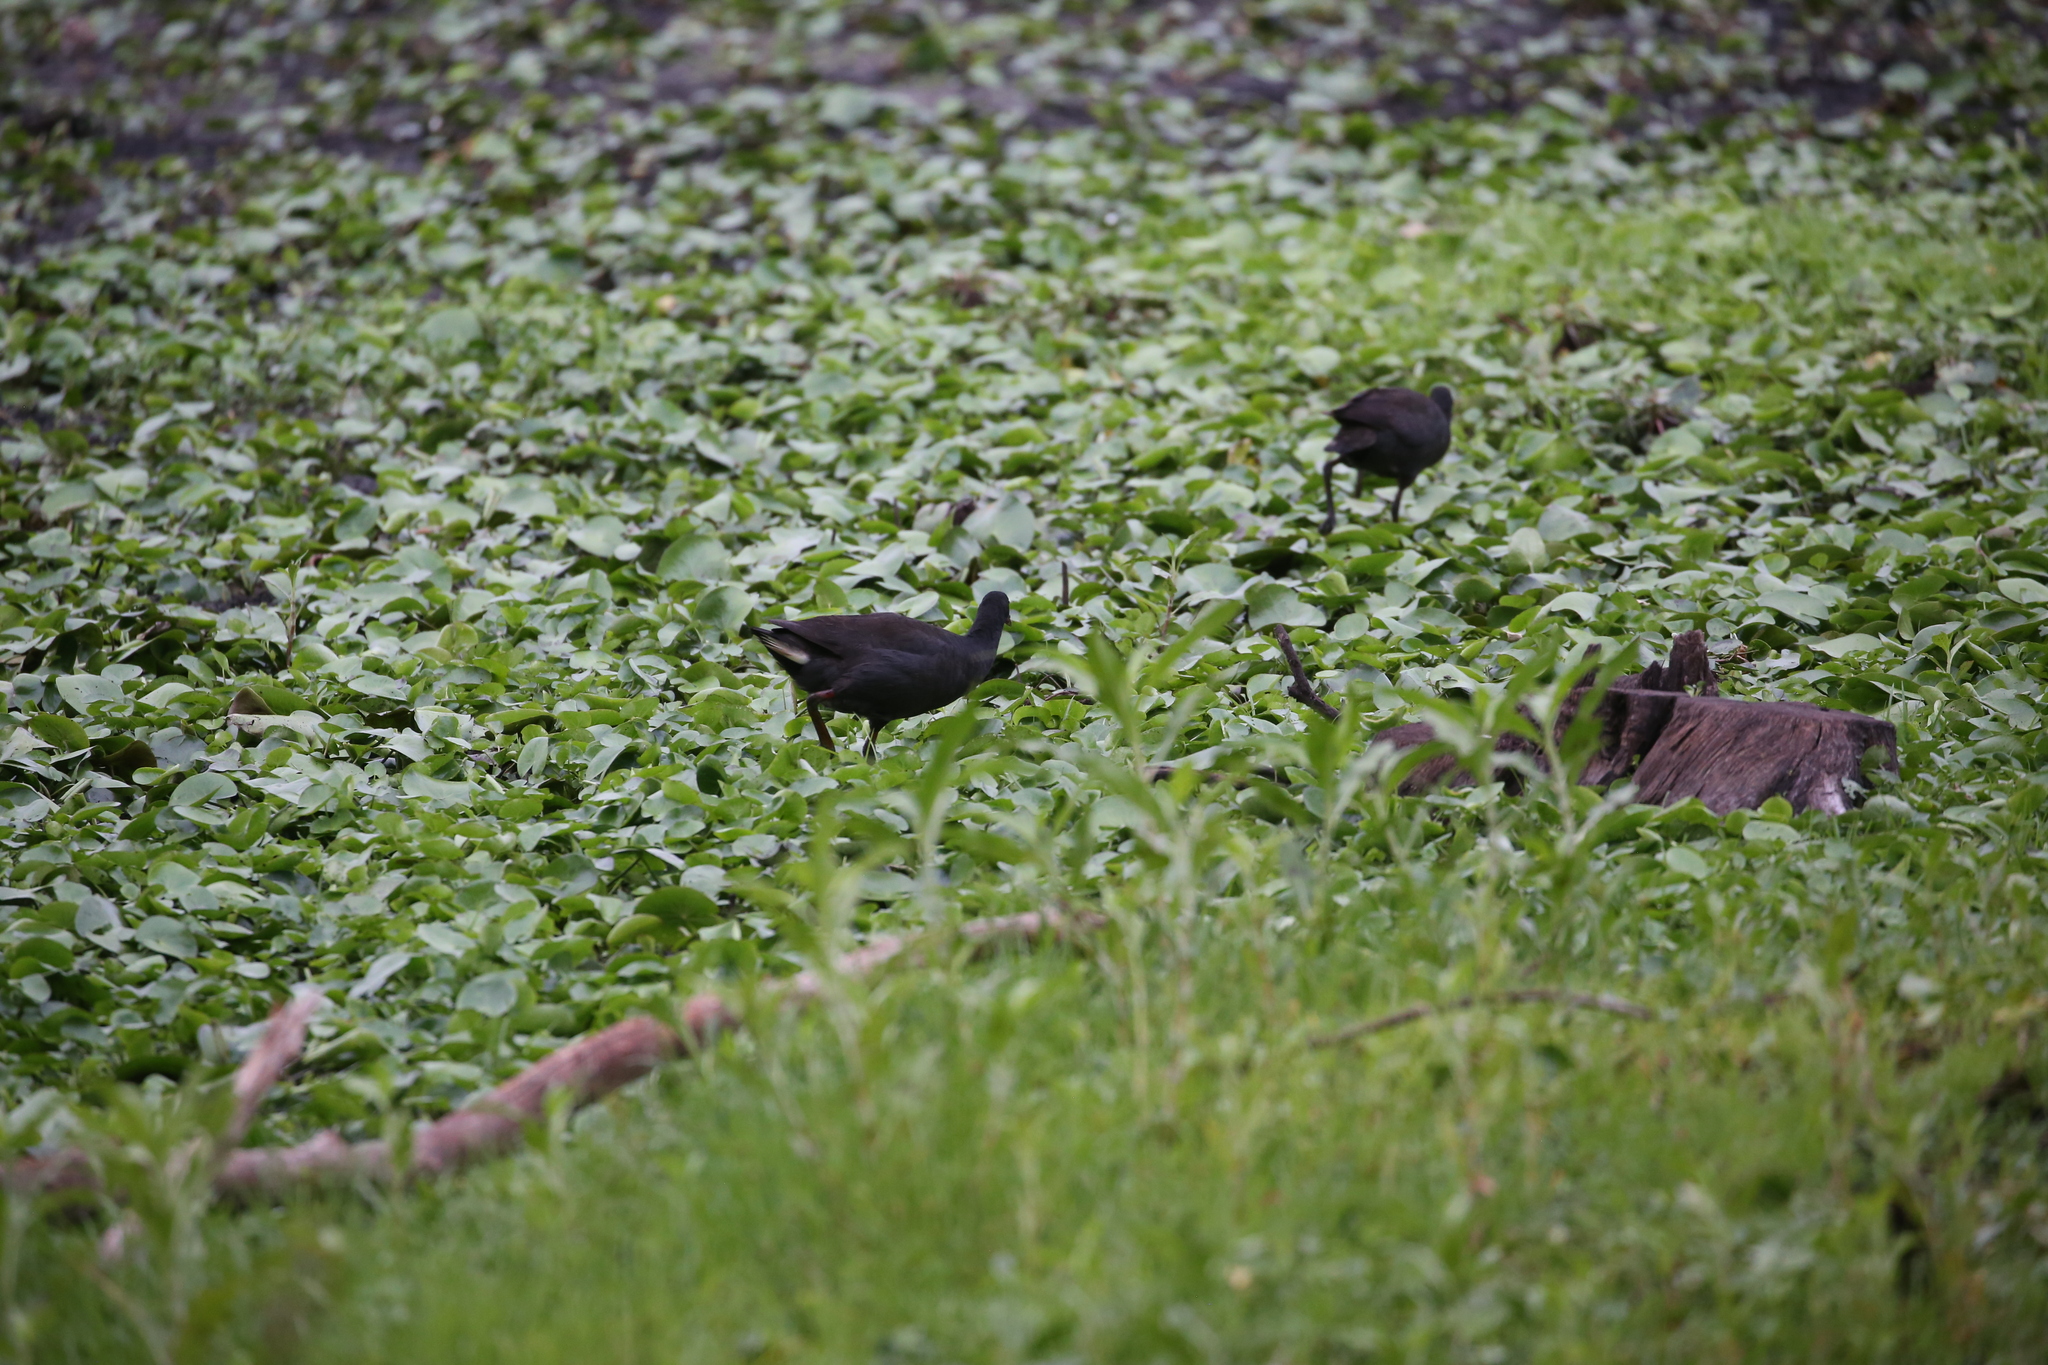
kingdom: Animalia
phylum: Chordata
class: Aves
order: Gruiformes
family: Rallidae
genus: Gallinula
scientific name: Gallinula tenebrosa
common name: Dusky moorhen
